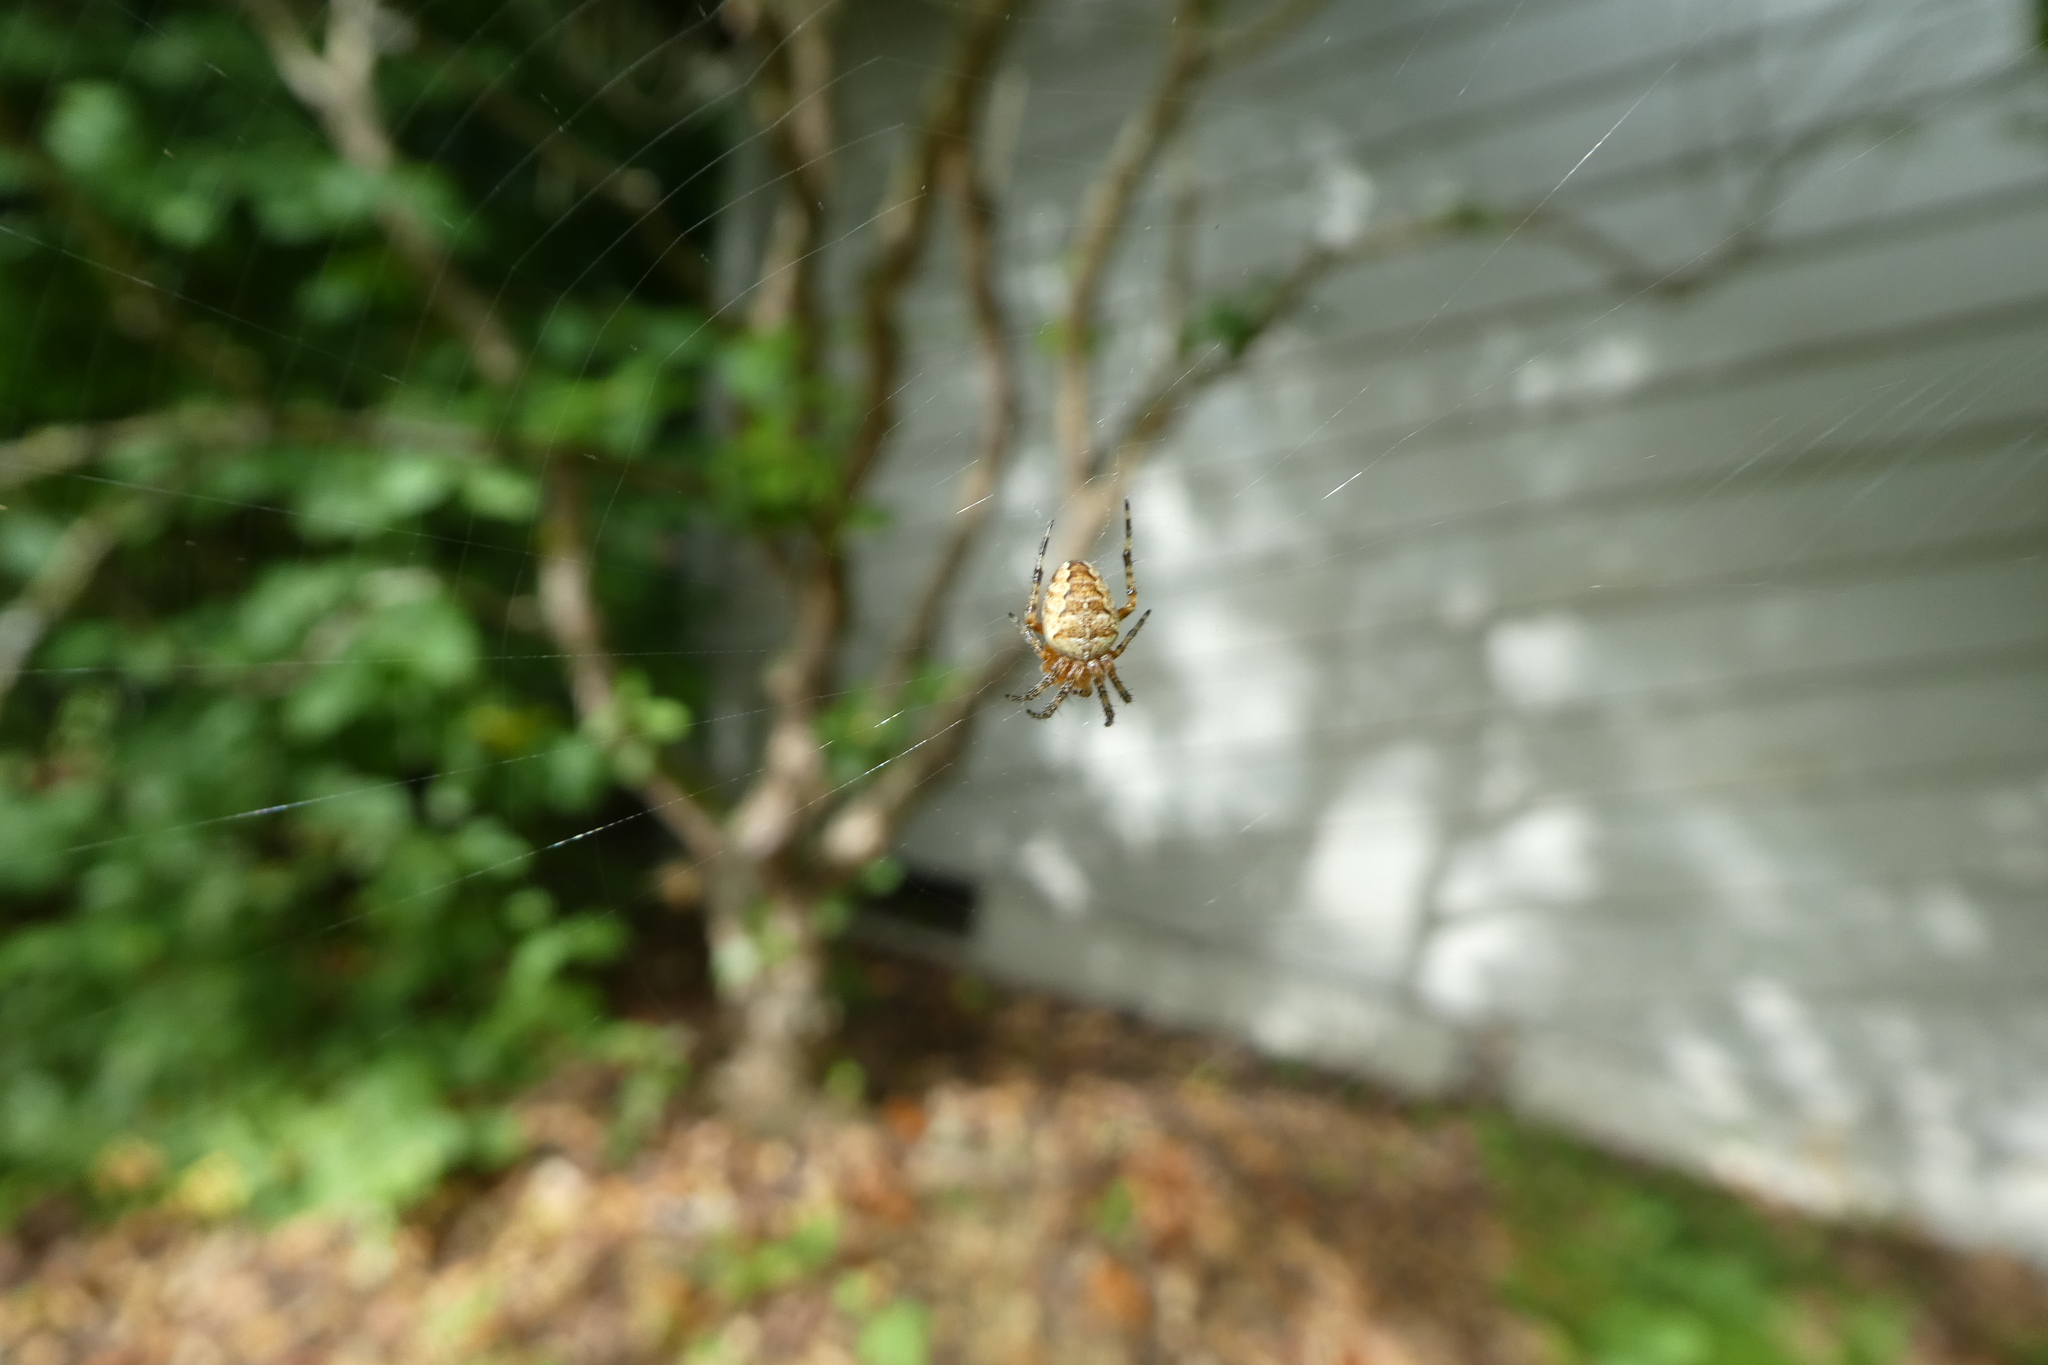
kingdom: Animalia
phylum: Arthropoda
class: Arachnida
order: Araneae
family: Araneidae
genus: Araneus
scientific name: Araneus diadematus
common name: Cross orbweaver
